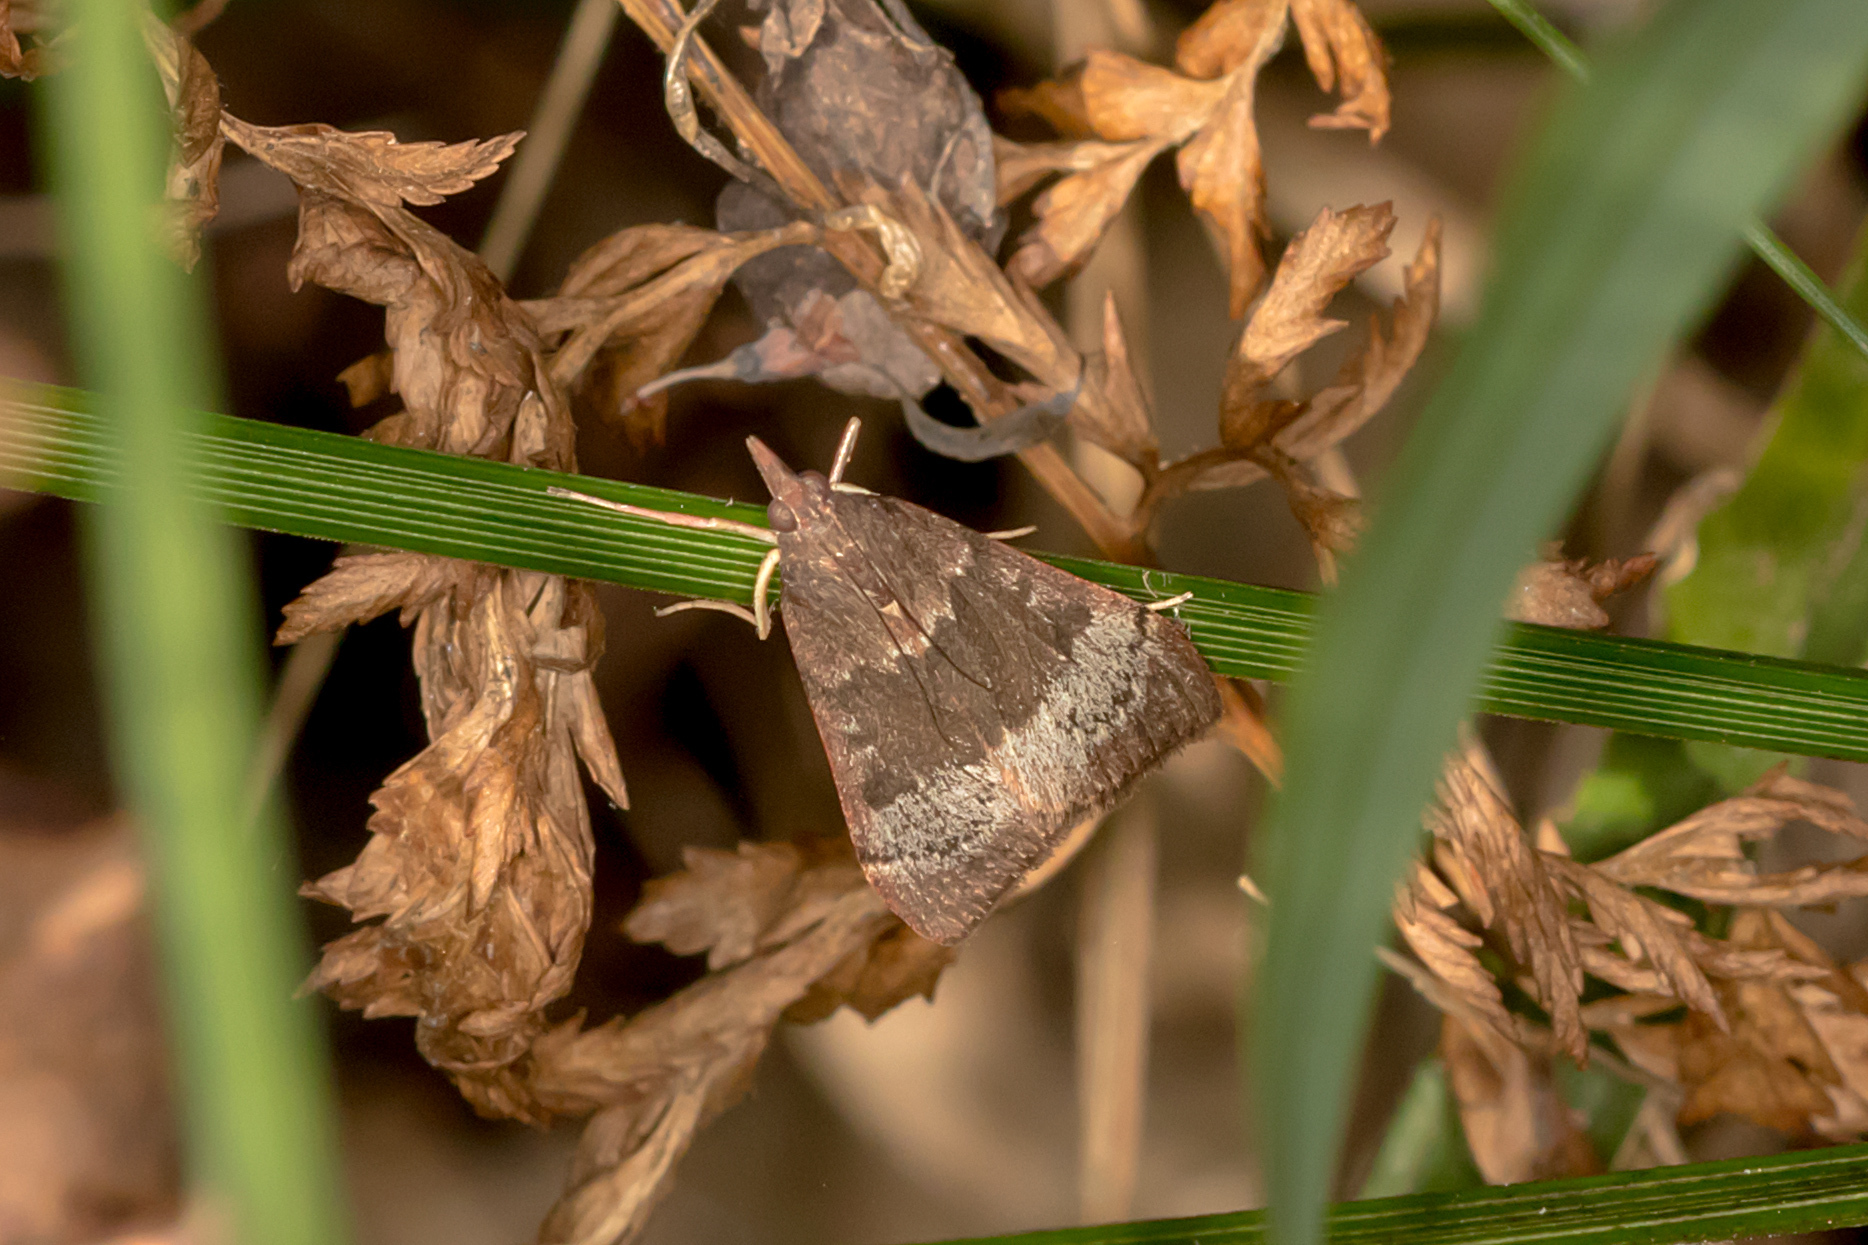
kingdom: Animalia
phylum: Arthropoda
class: Insecta
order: Lepidoptera
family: Crambidae
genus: Uresiphita
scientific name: Uresiphita ornithopteralis
